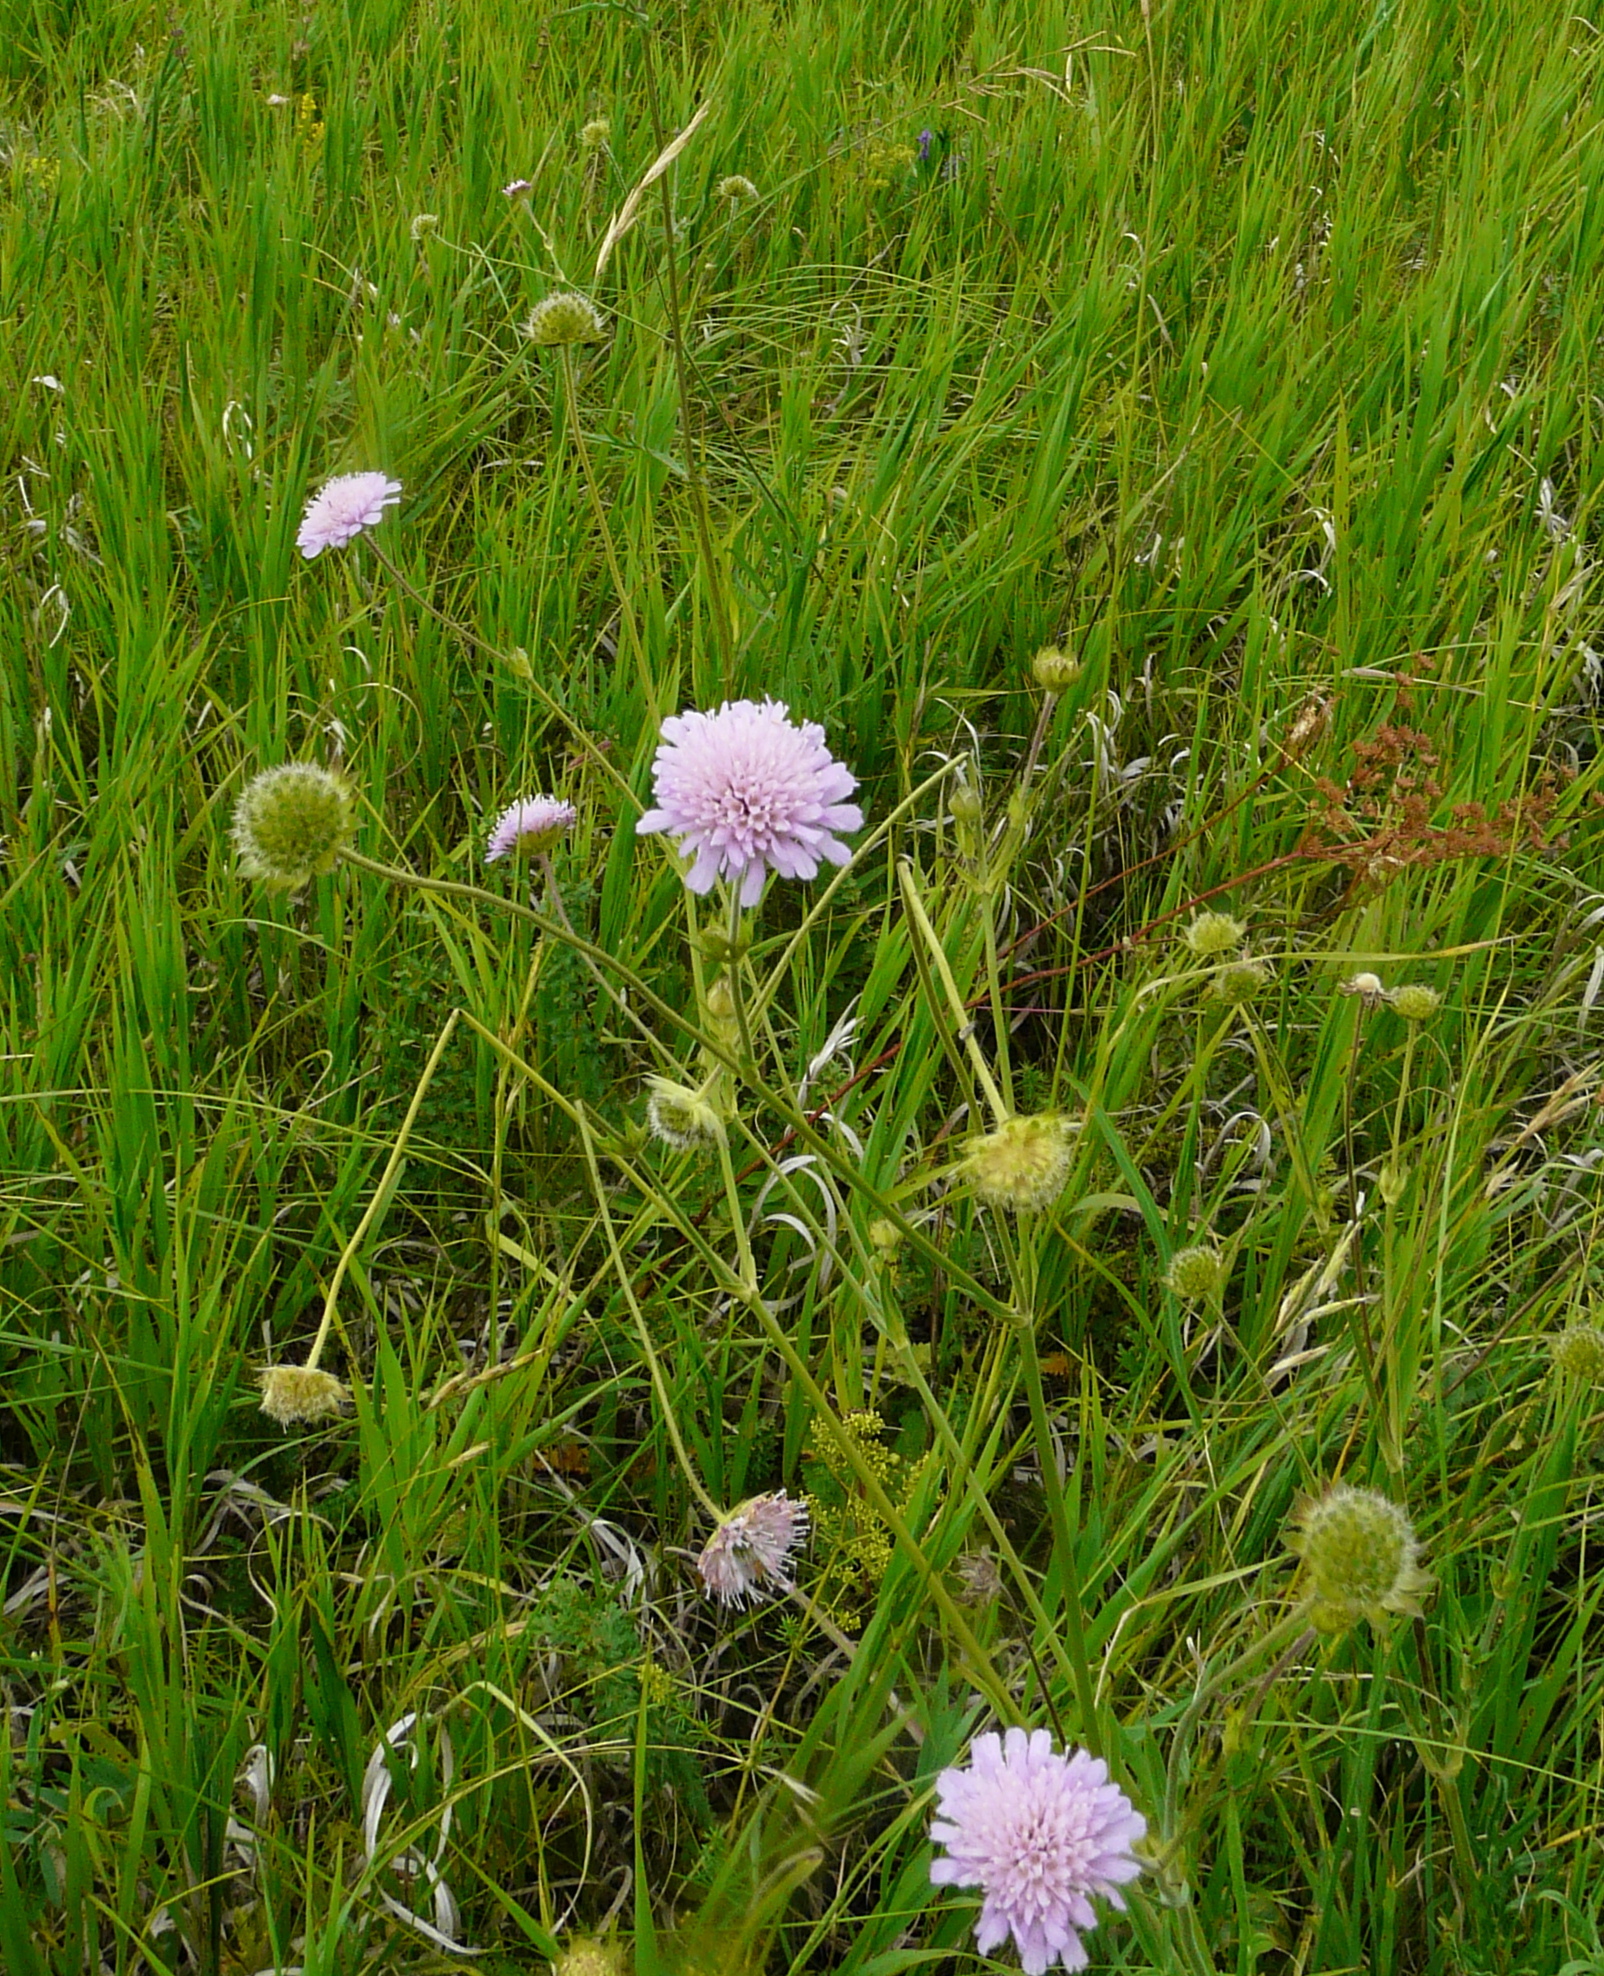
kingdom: Plantae
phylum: Tracheophyta
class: Magnoliopsida
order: Dipsacales
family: Caprifoliaceae
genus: Knautia
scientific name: Knautia arvensis
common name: Field scabiosa
